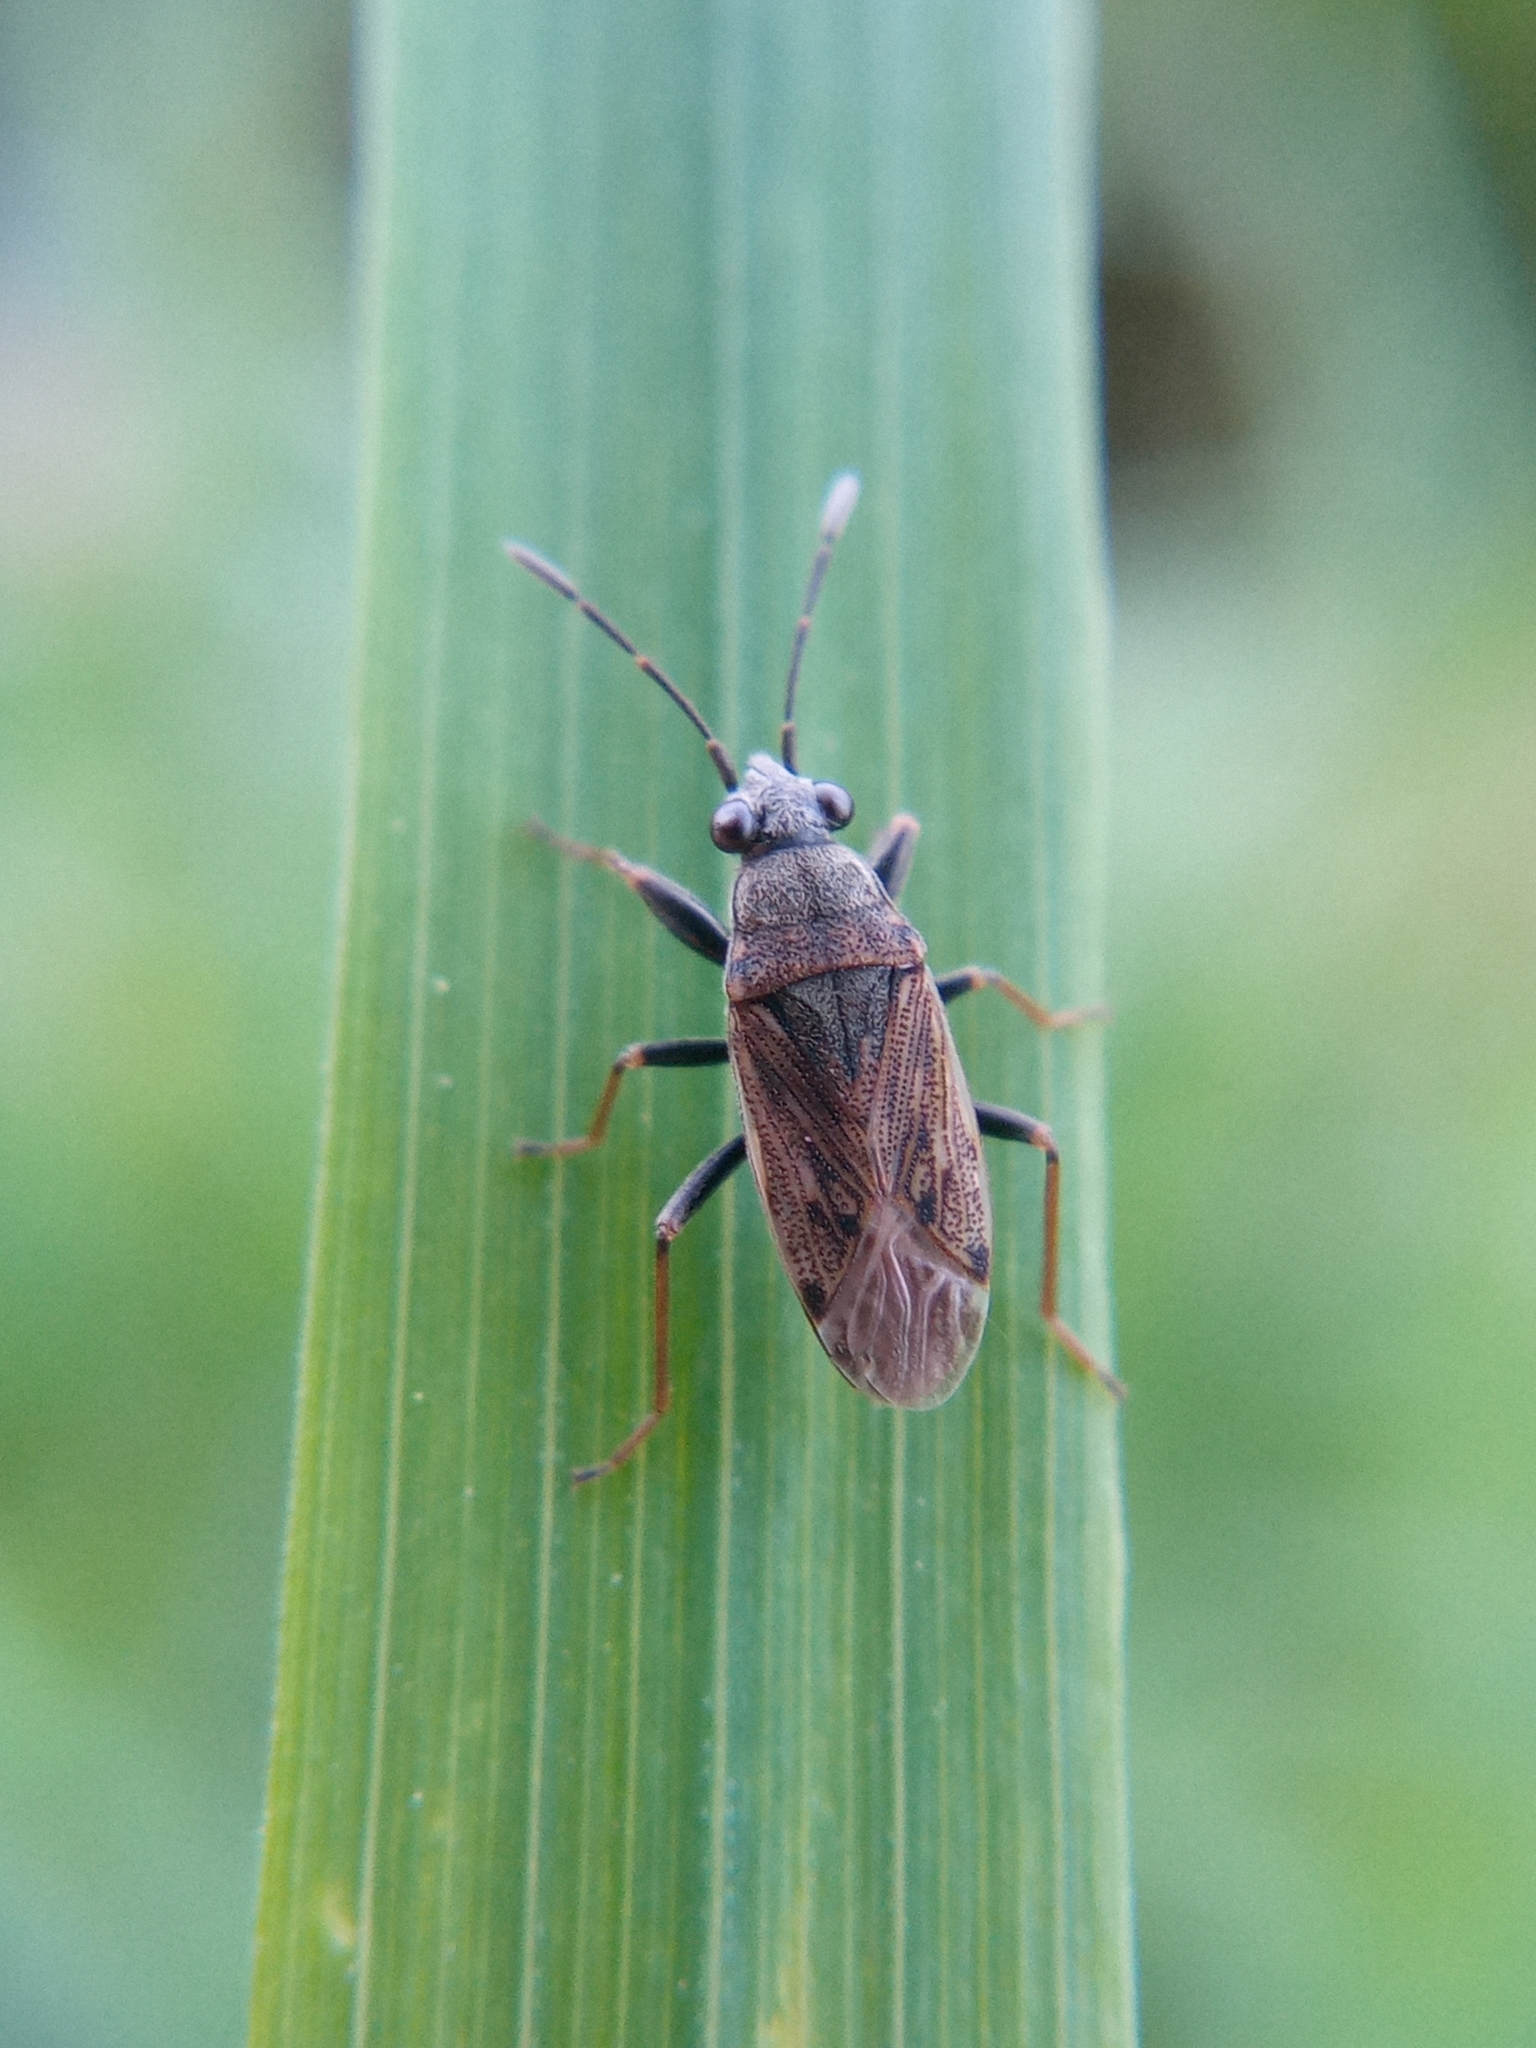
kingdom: Animalia
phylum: Arthropoda
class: Insecta
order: Hemiptera
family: Rhyparochromidae
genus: Peritrechus
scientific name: Peritrechus gracilicornis
